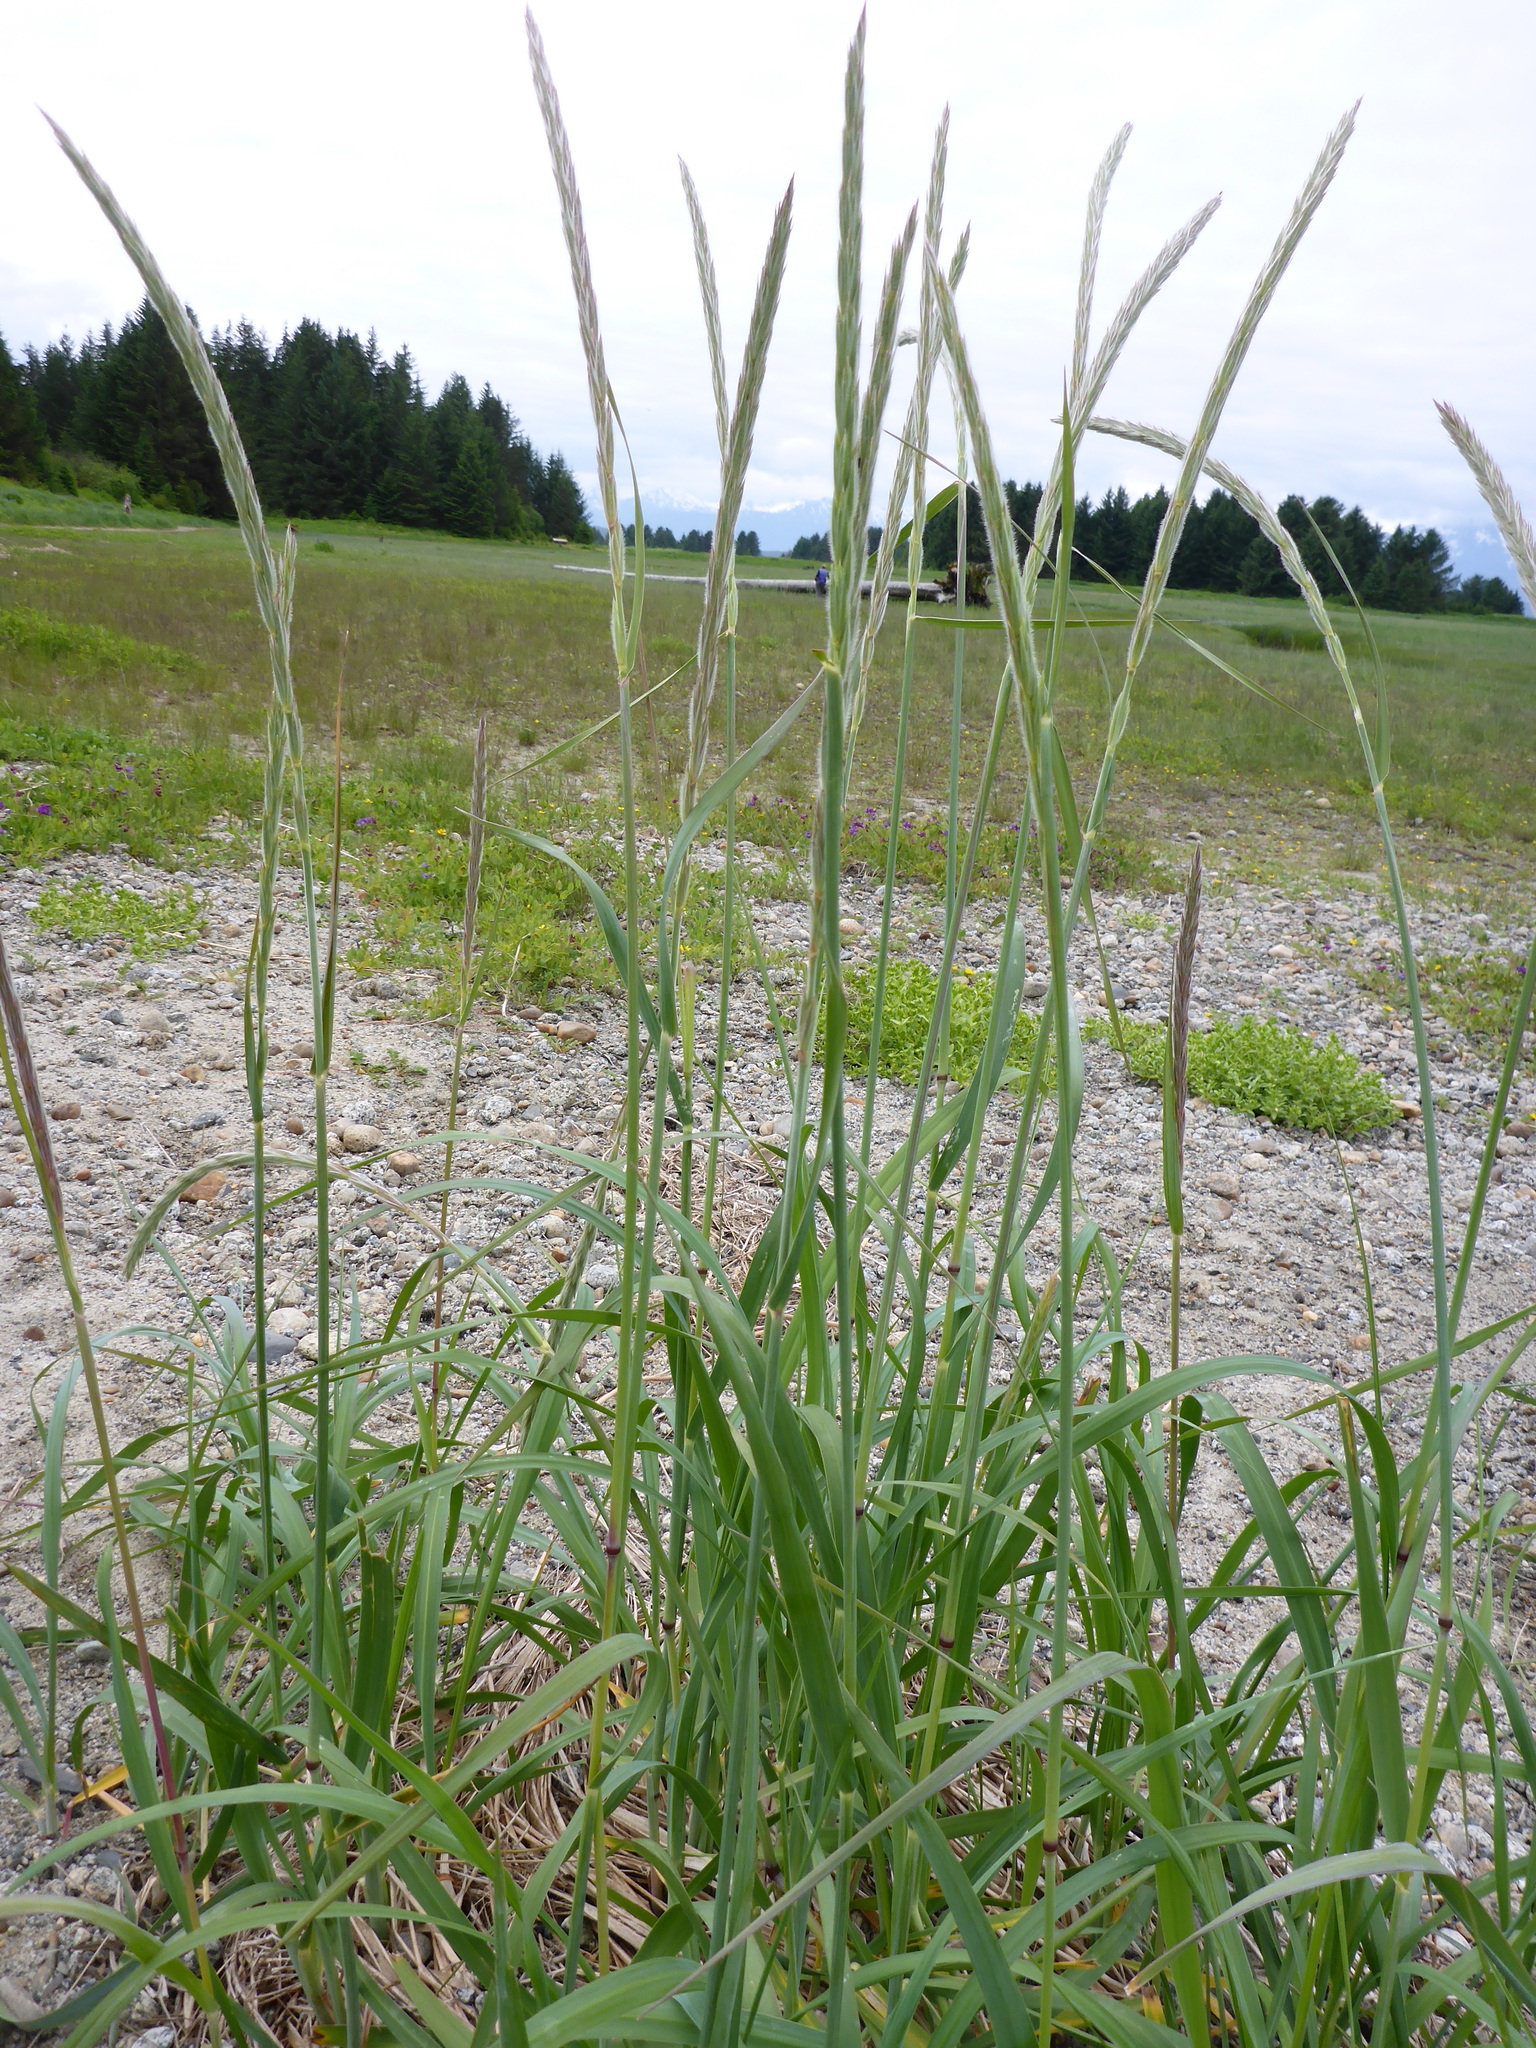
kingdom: Plantae
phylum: Tracheophyta
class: Liliopsida
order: Poales
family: Poaceae
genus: Leymus
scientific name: Leymus mollis
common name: American dune grass
